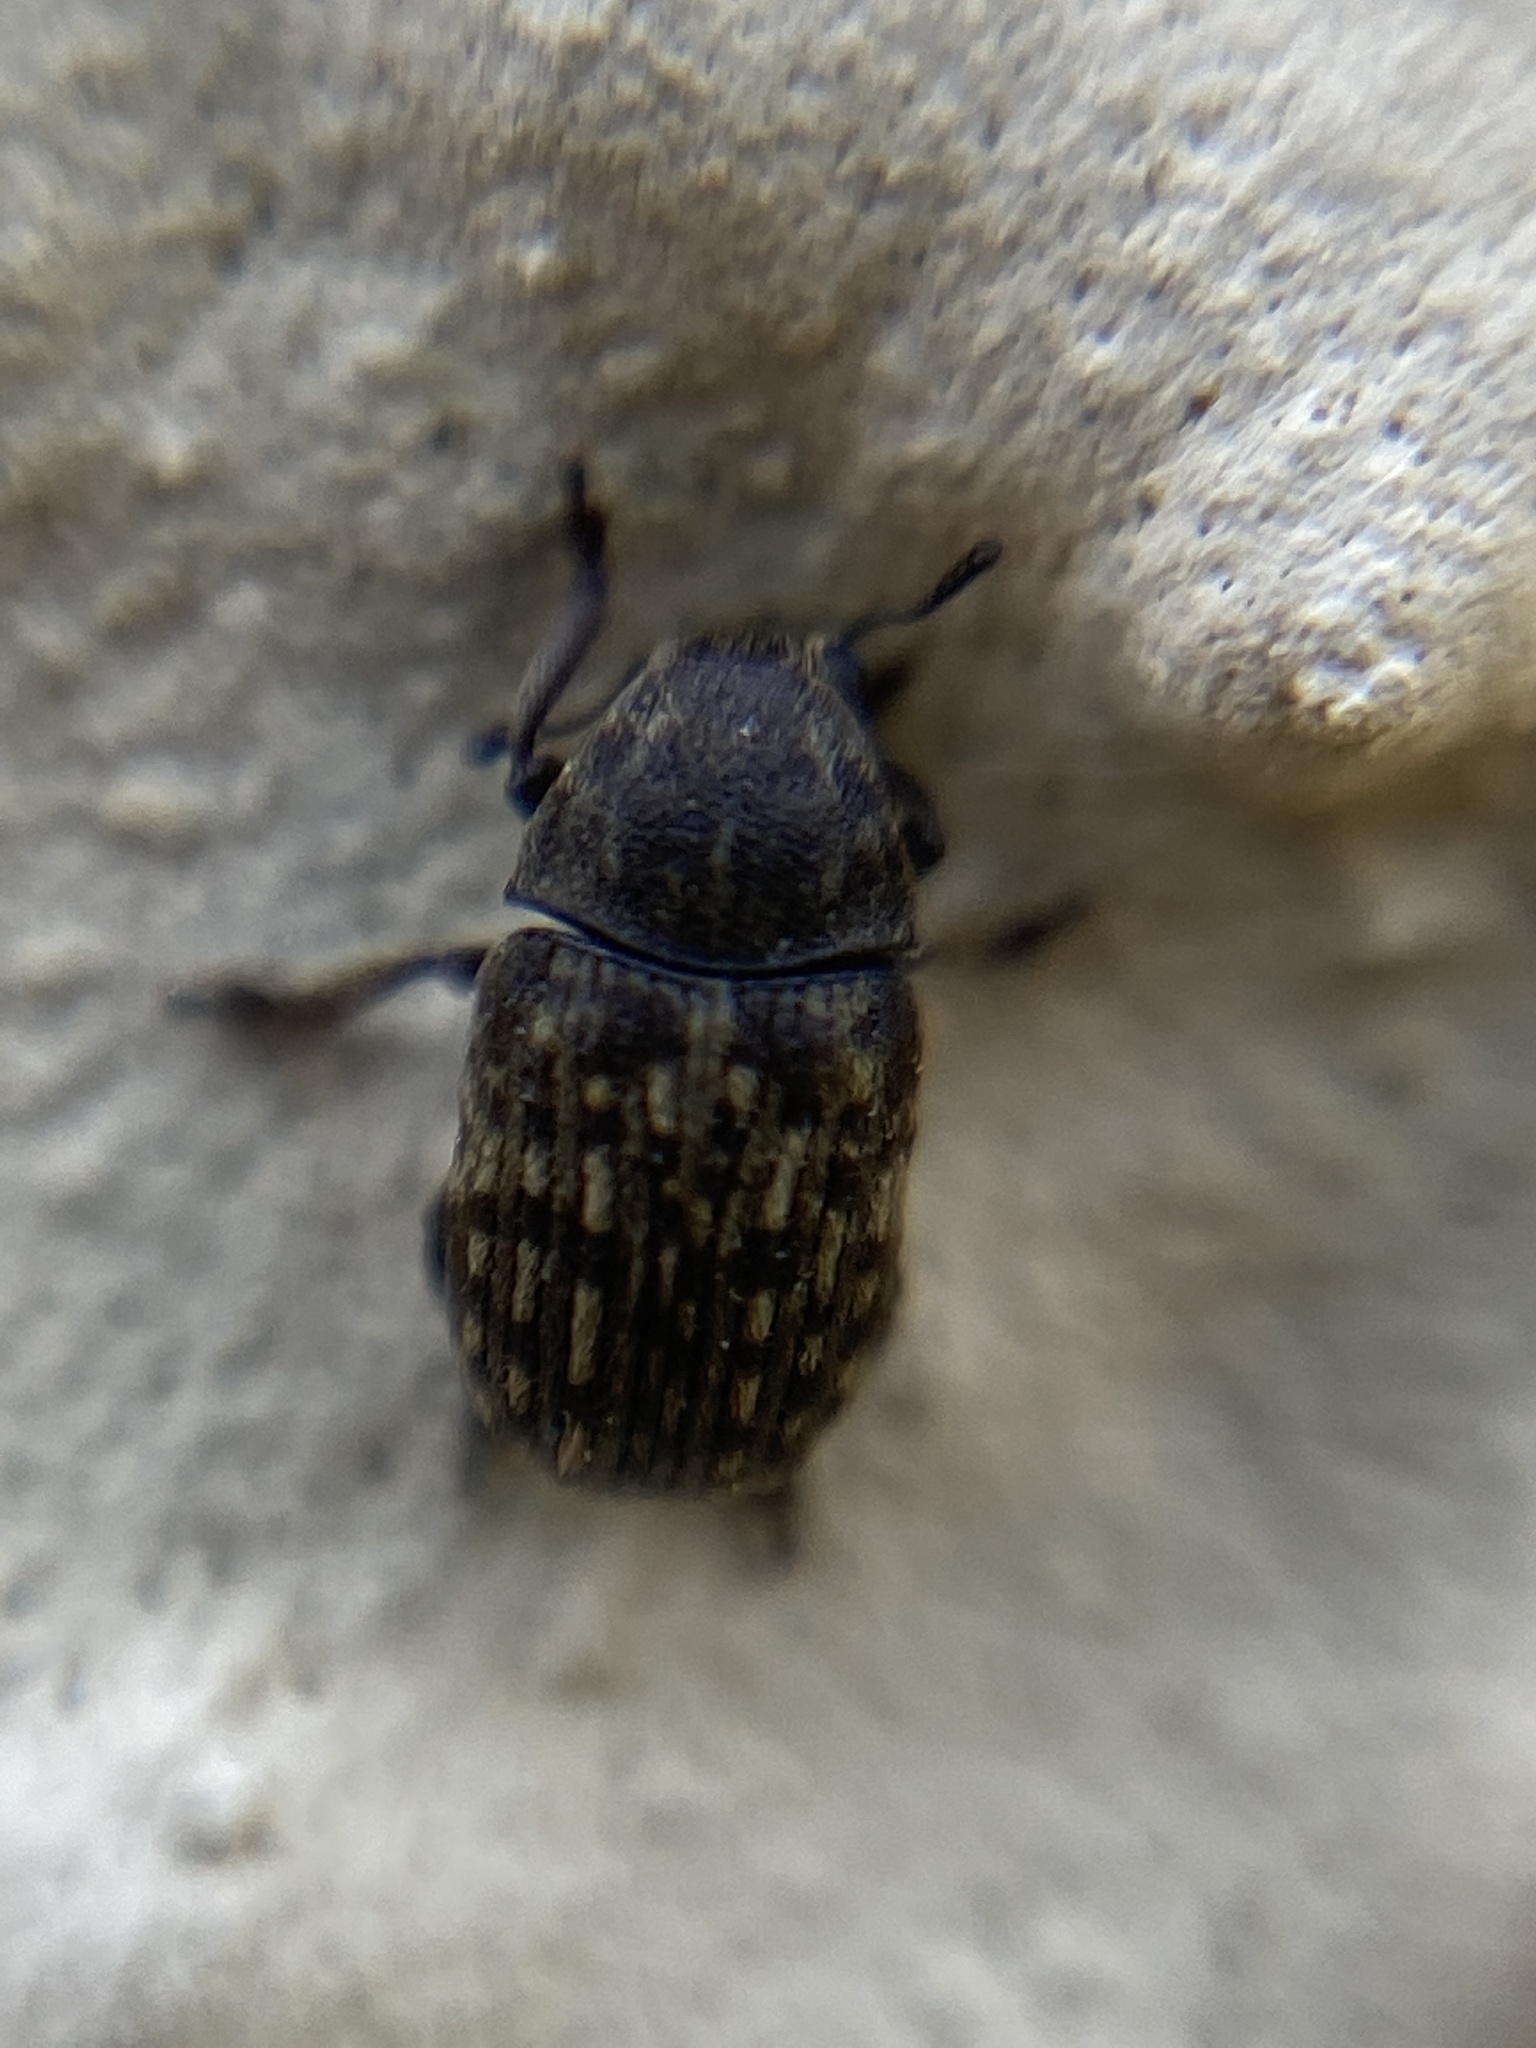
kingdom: Animalia
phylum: Arthropoda
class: Insecta
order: Coleoptera
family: Anthribidae
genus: Anthribus
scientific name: Anthribus nebulosus
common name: Fungus weevil
